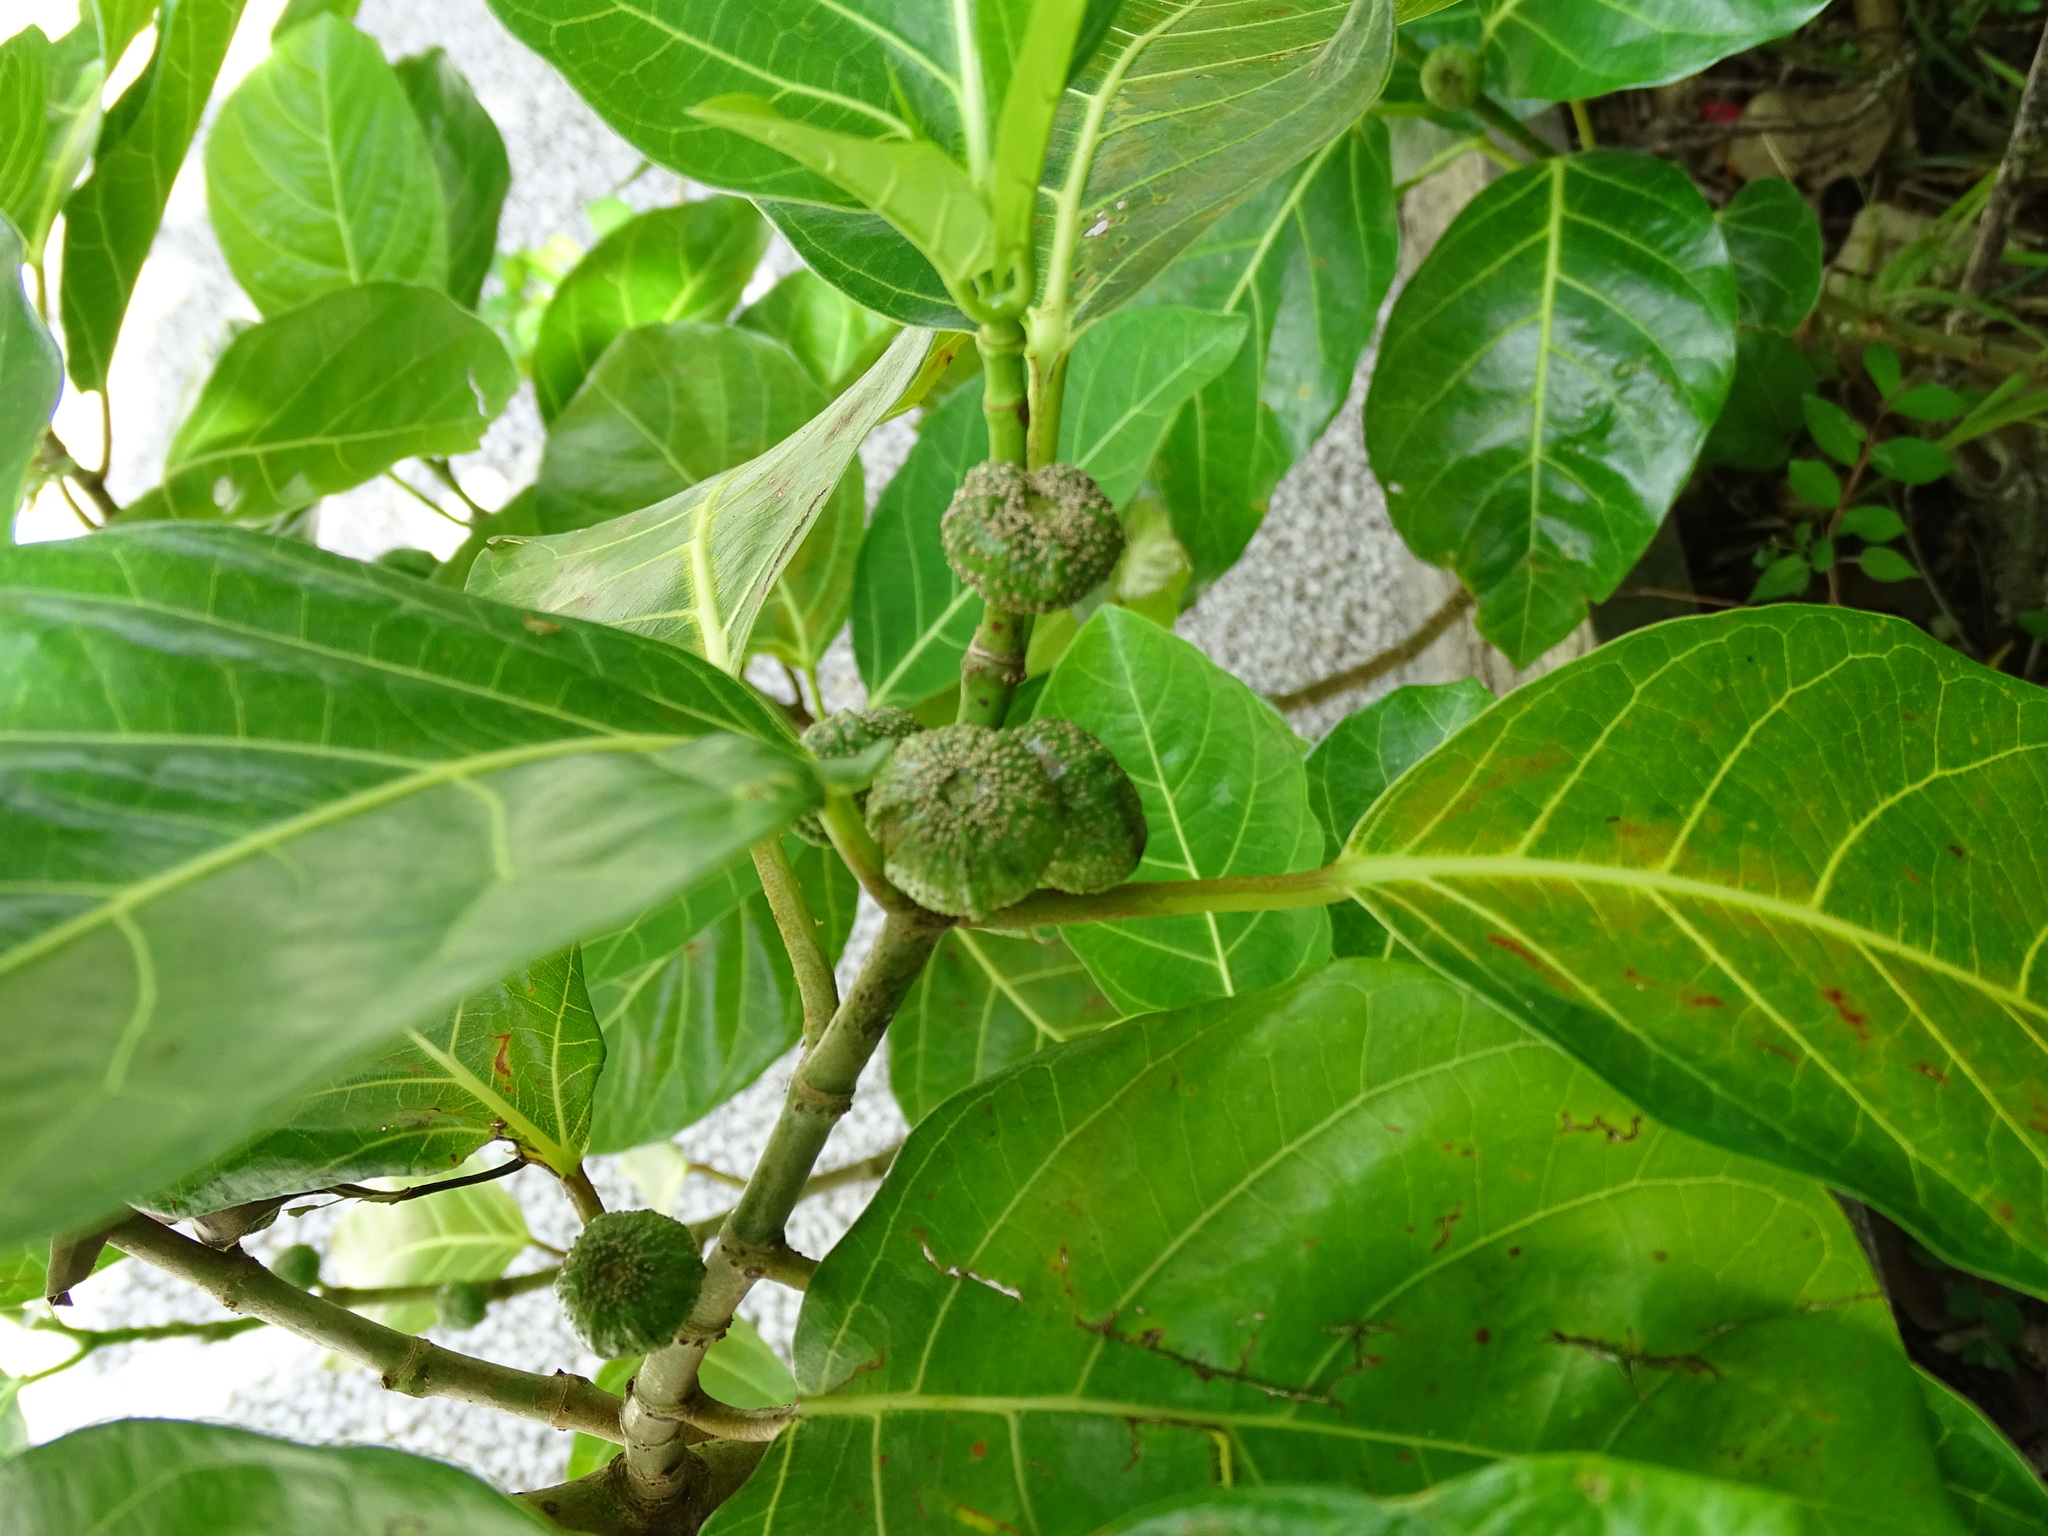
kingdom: Plantae
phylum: Tracheophyta
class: Magnoliopsida
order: Rosales
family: Moraceae
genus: Ficus
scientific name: Ficus septica
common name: Septic fig
